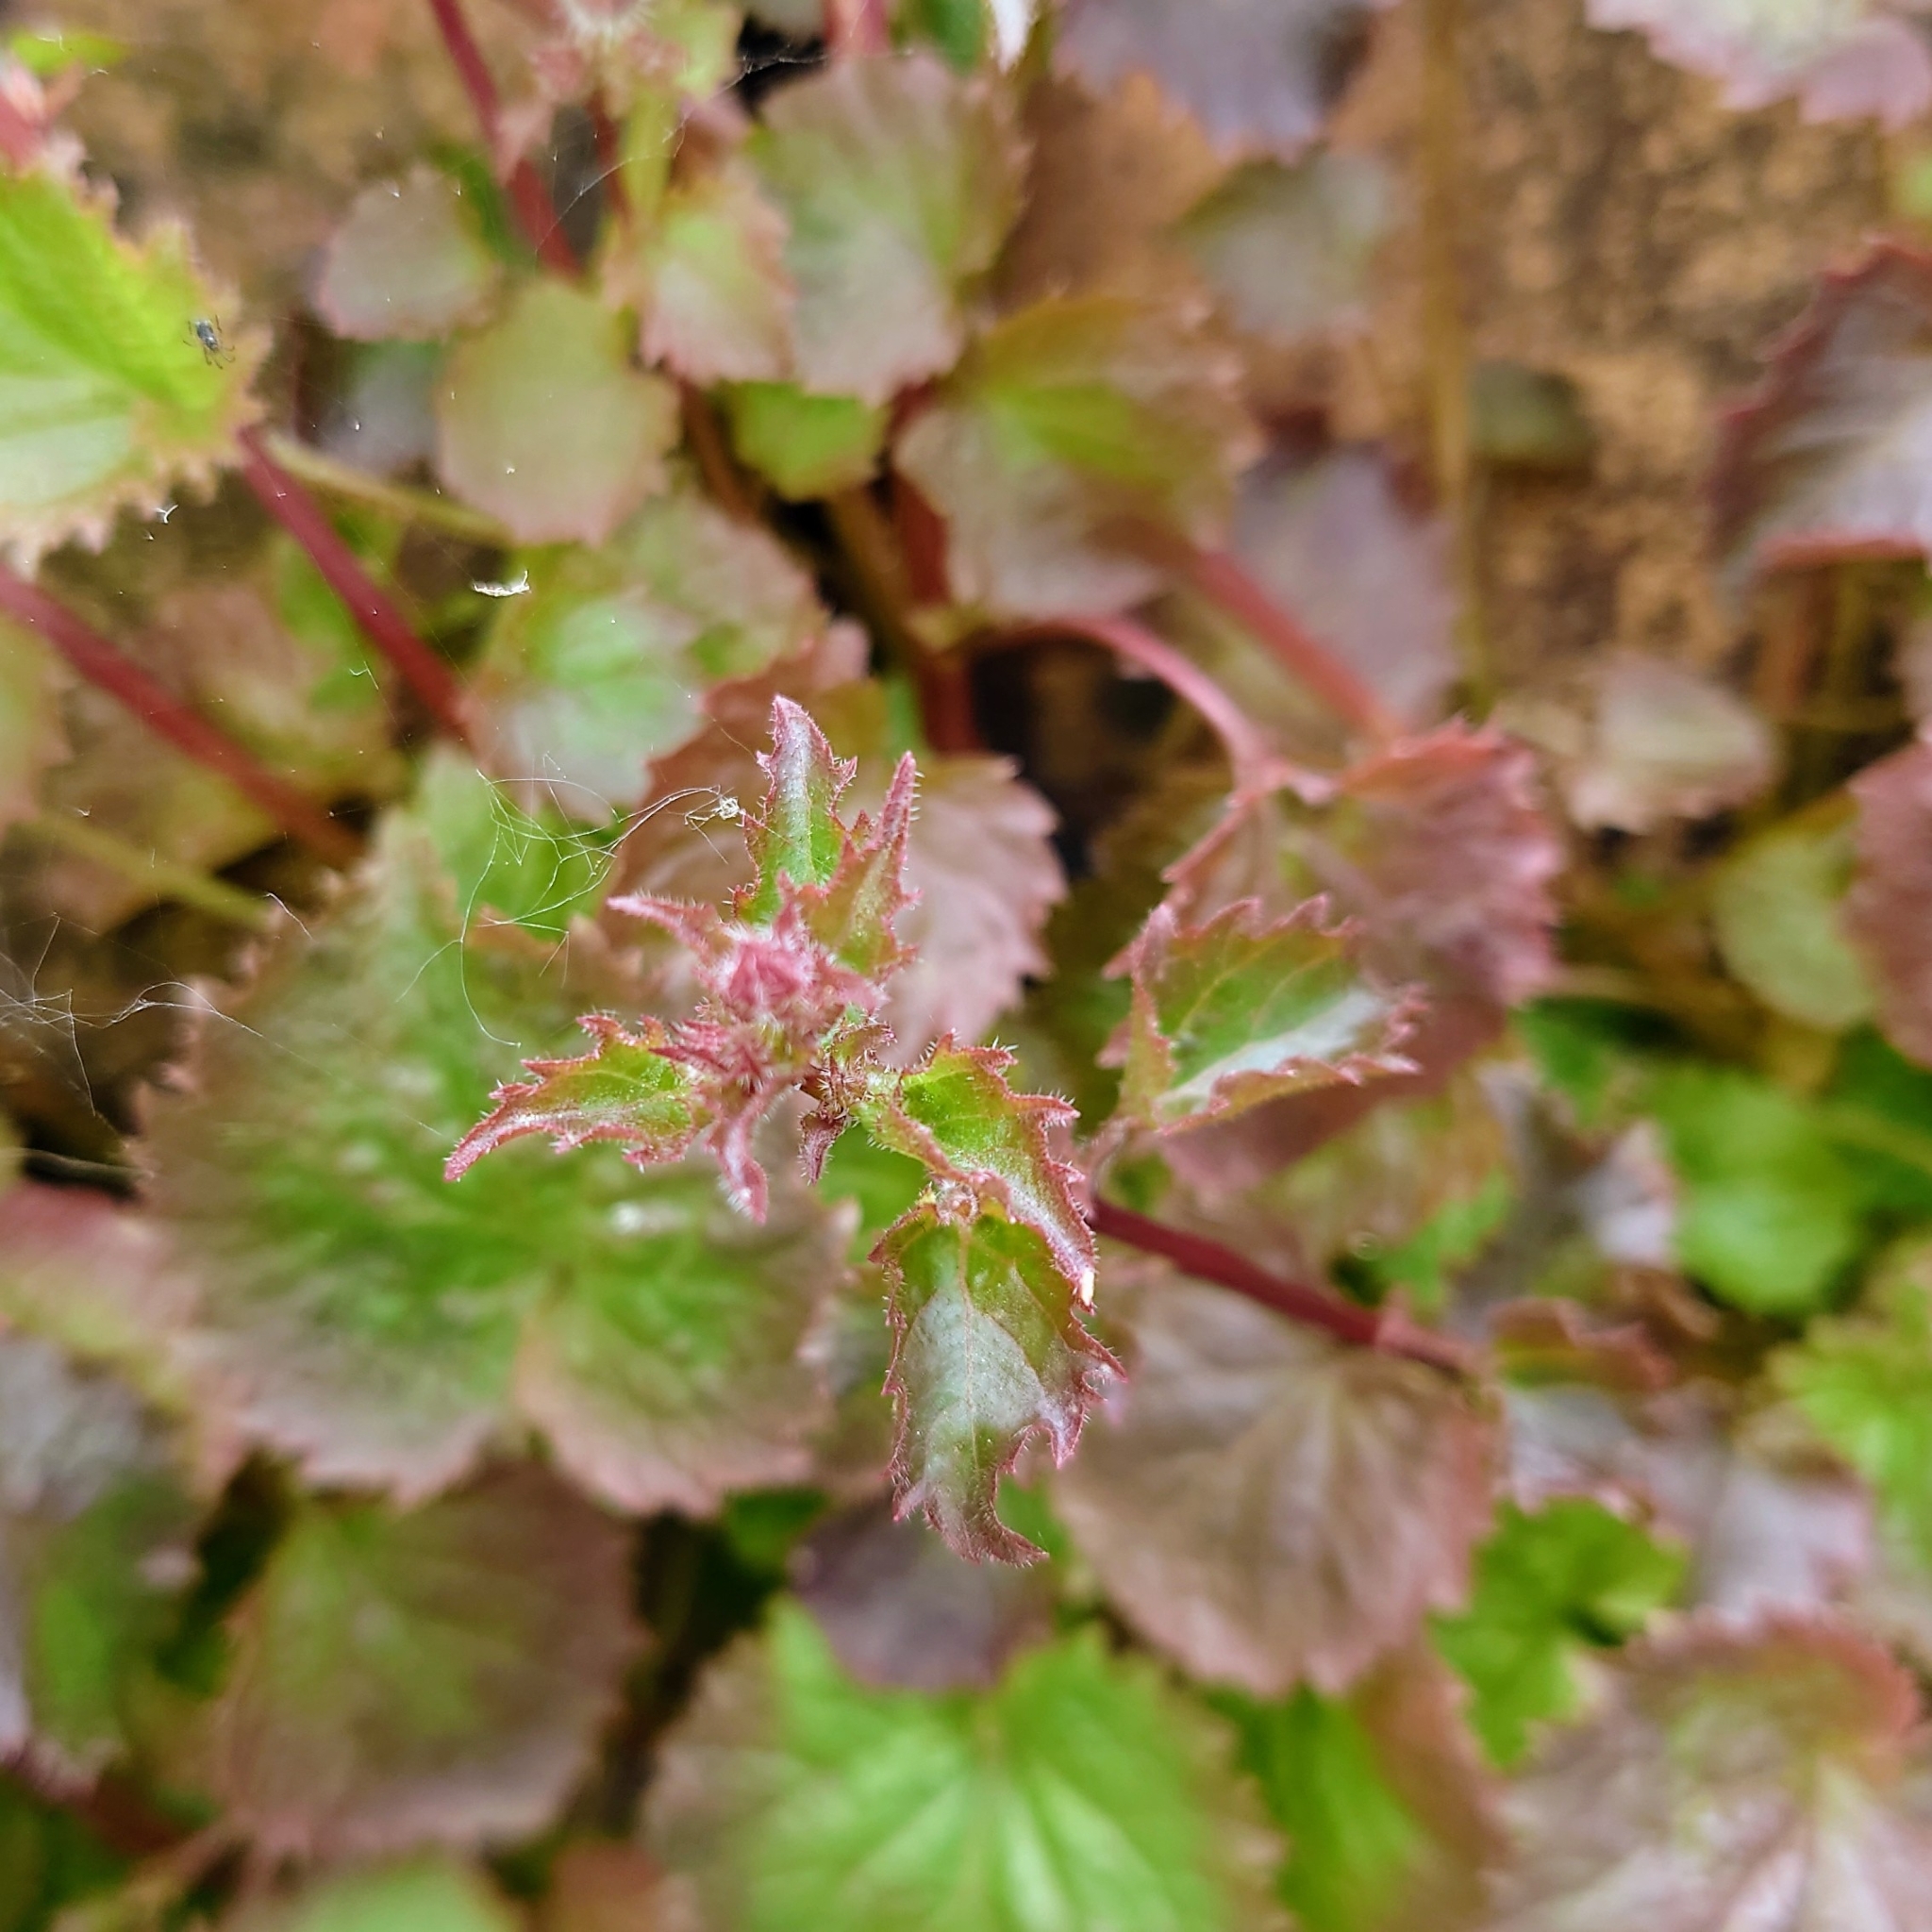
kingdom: Plantae
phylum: Tracheophyta
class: Magnoliopsida
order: Asterales
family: Campanulaceae
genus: Campanula
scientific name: Campanula poscharskyana
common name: Trailing bellflower
